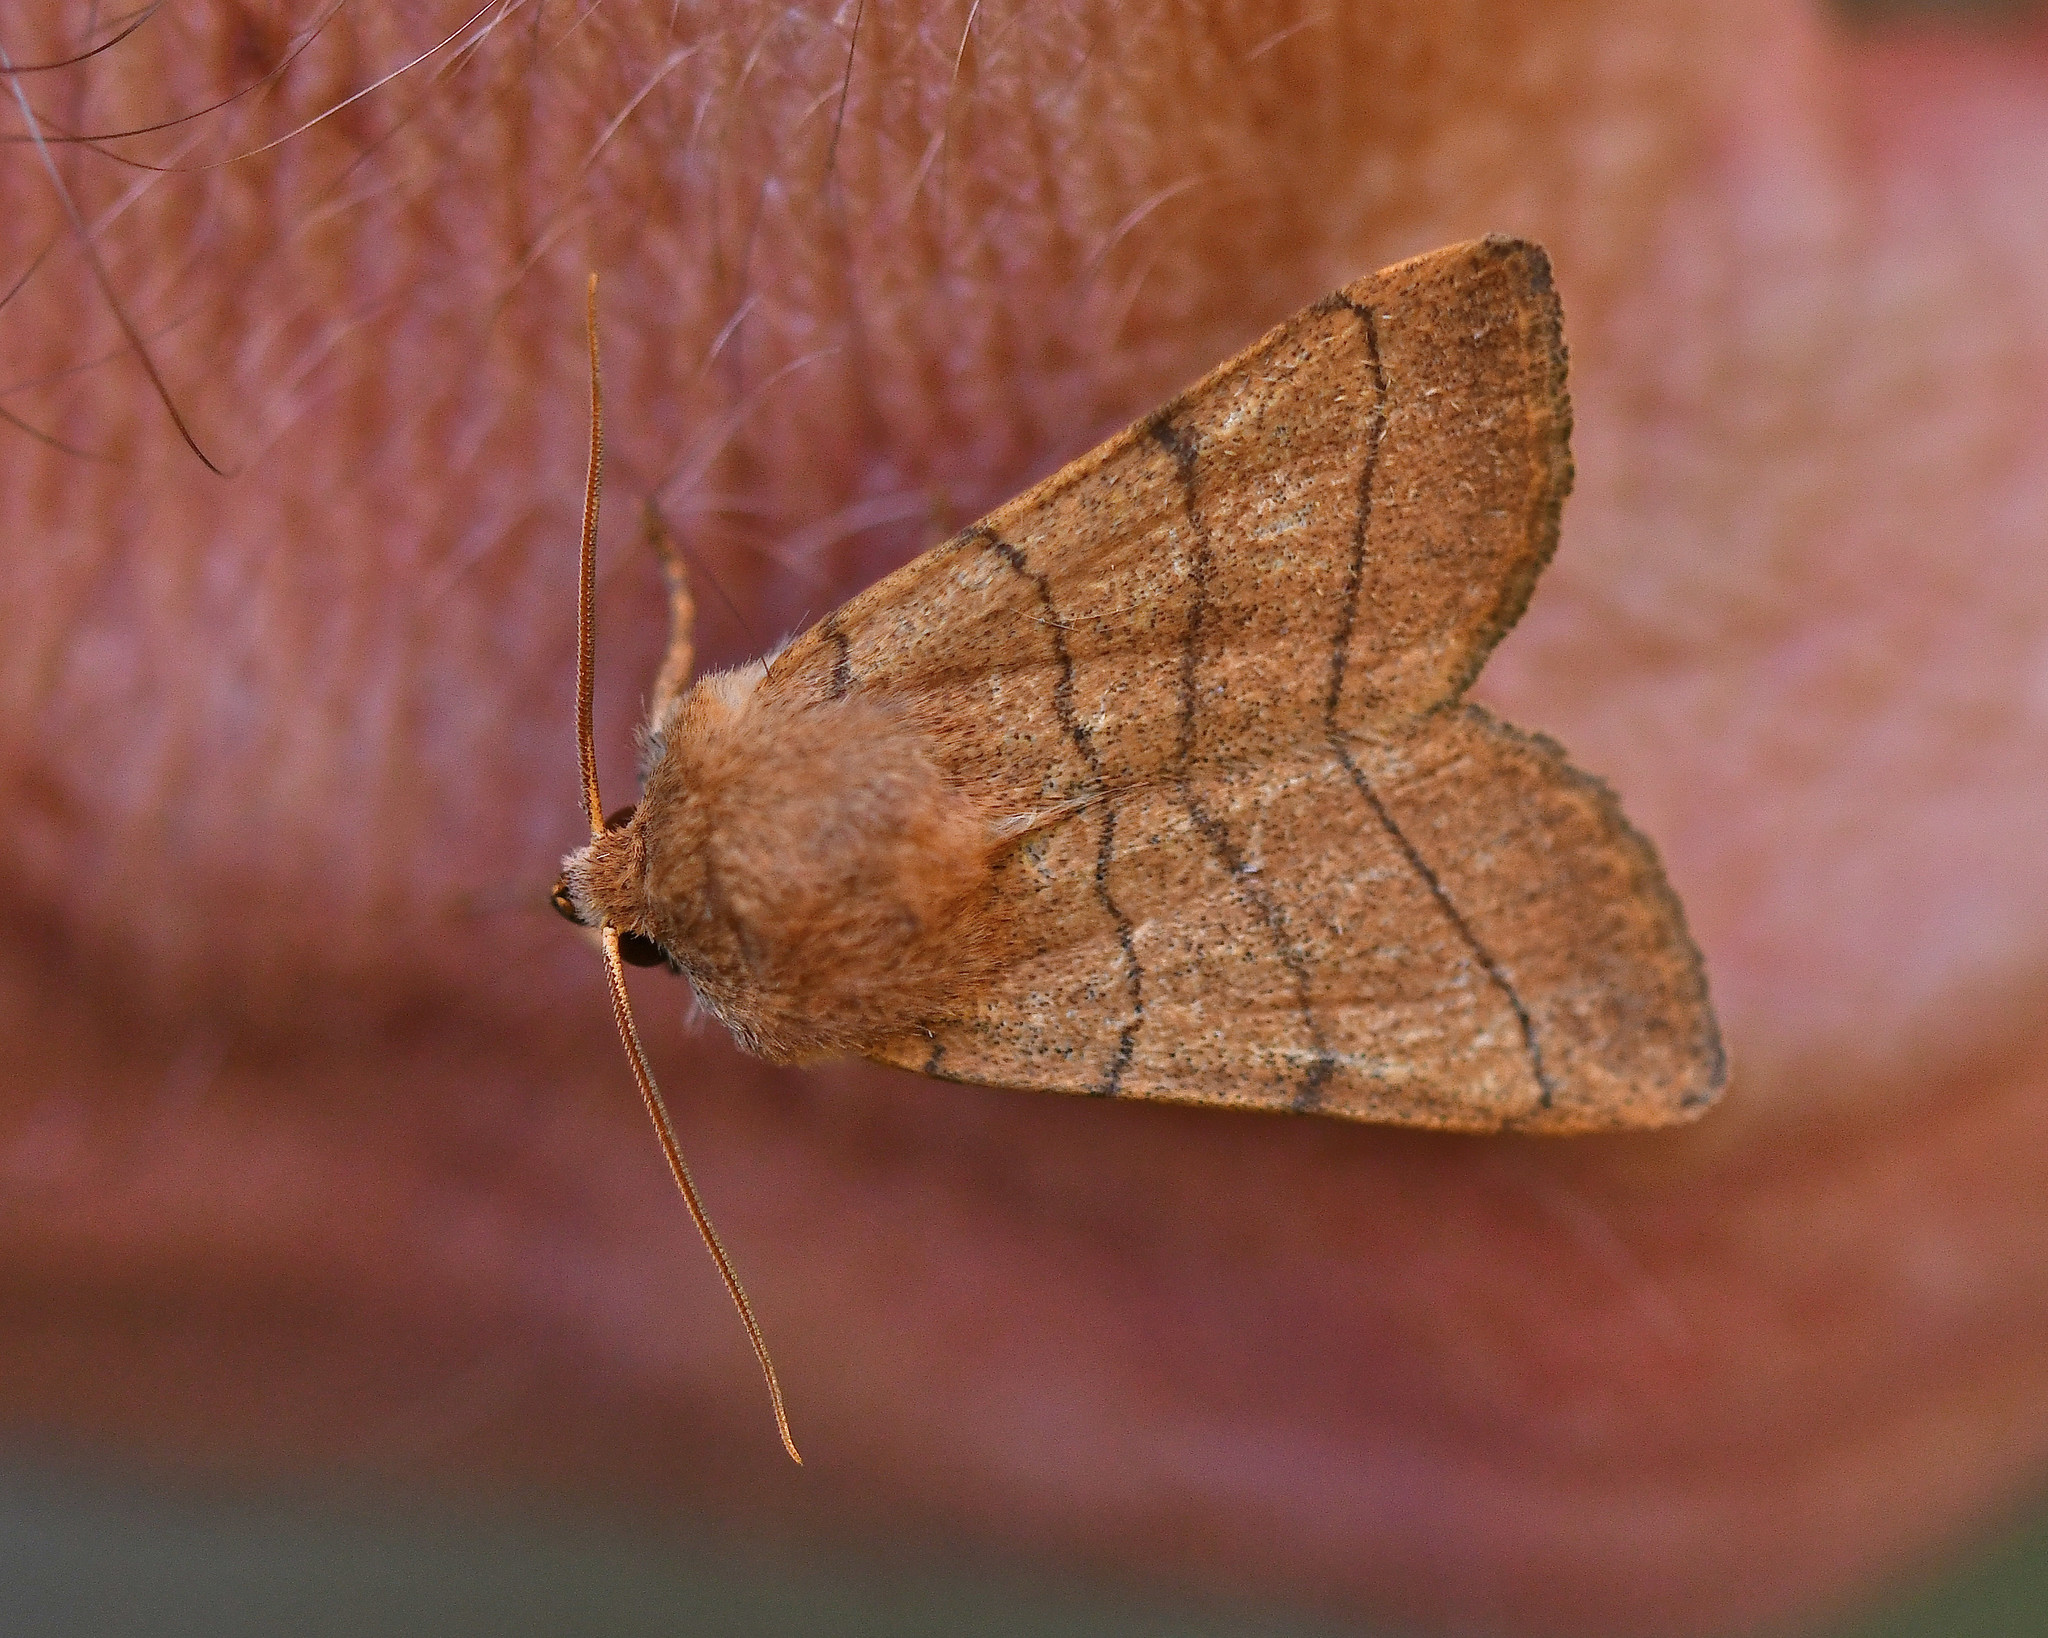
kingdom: Animalia
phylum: Arthropoda
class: Insecta
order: Lepidoptera
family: Noctuidae
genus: Charanyca
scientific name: Charanyca trigrammica
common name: Treble lines
